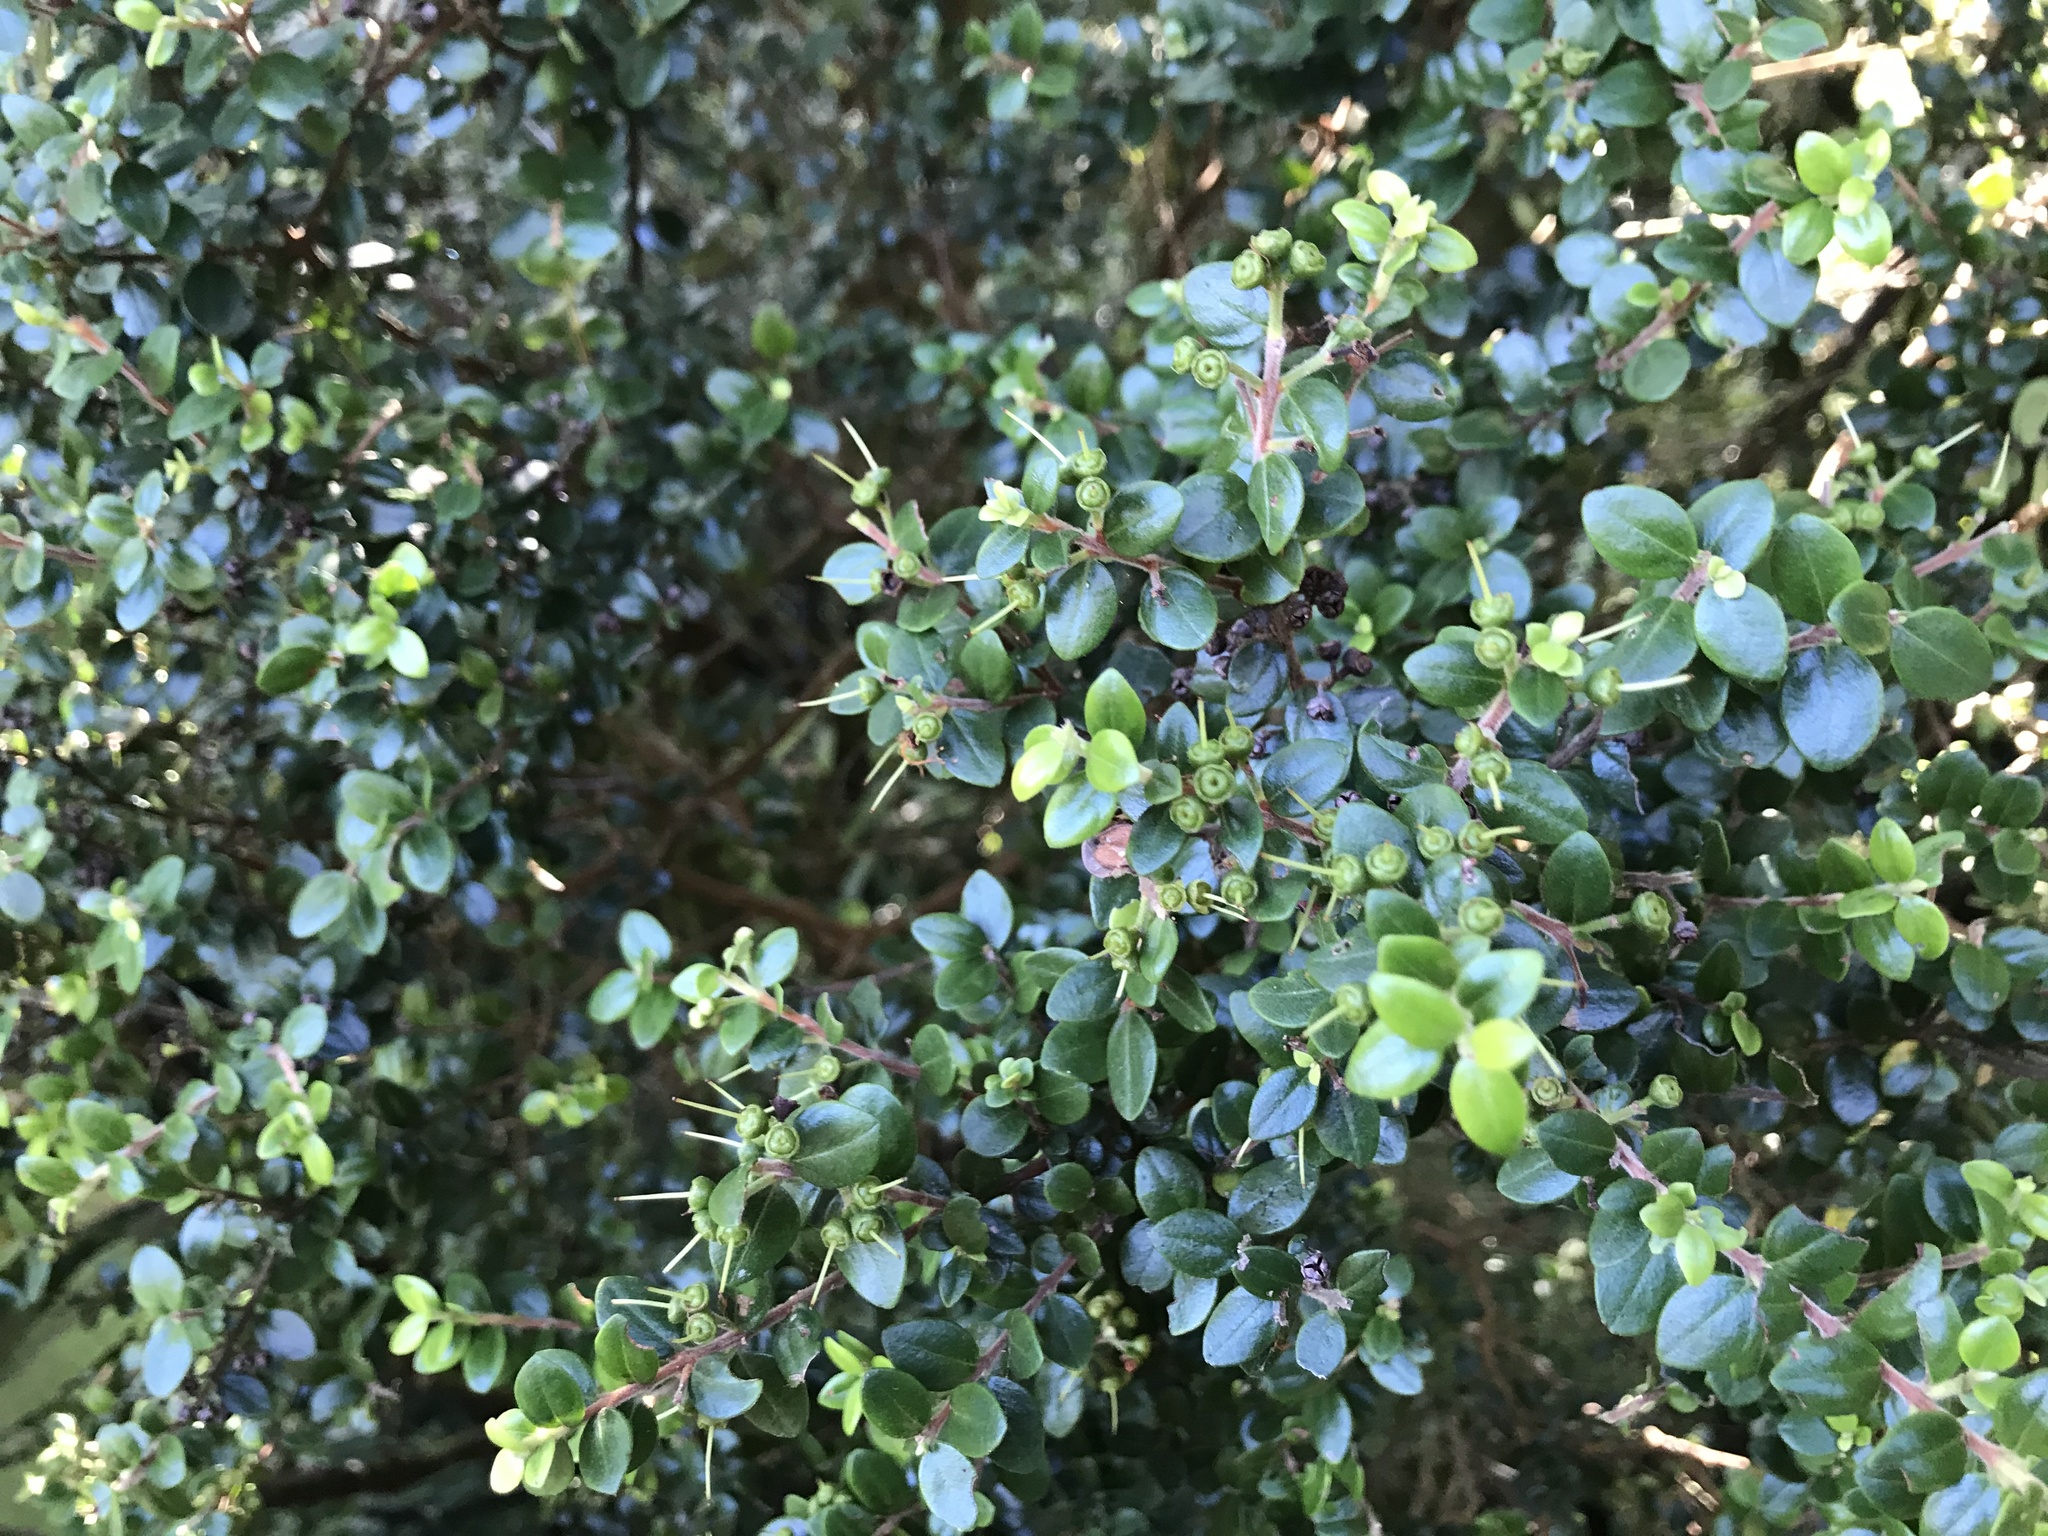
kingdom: Plantae
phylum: Tracheophyta
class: Magnoliopsida
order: Myrtales
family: Myrtaceae
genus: Metrosideros
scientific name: Metrosideros perforata
